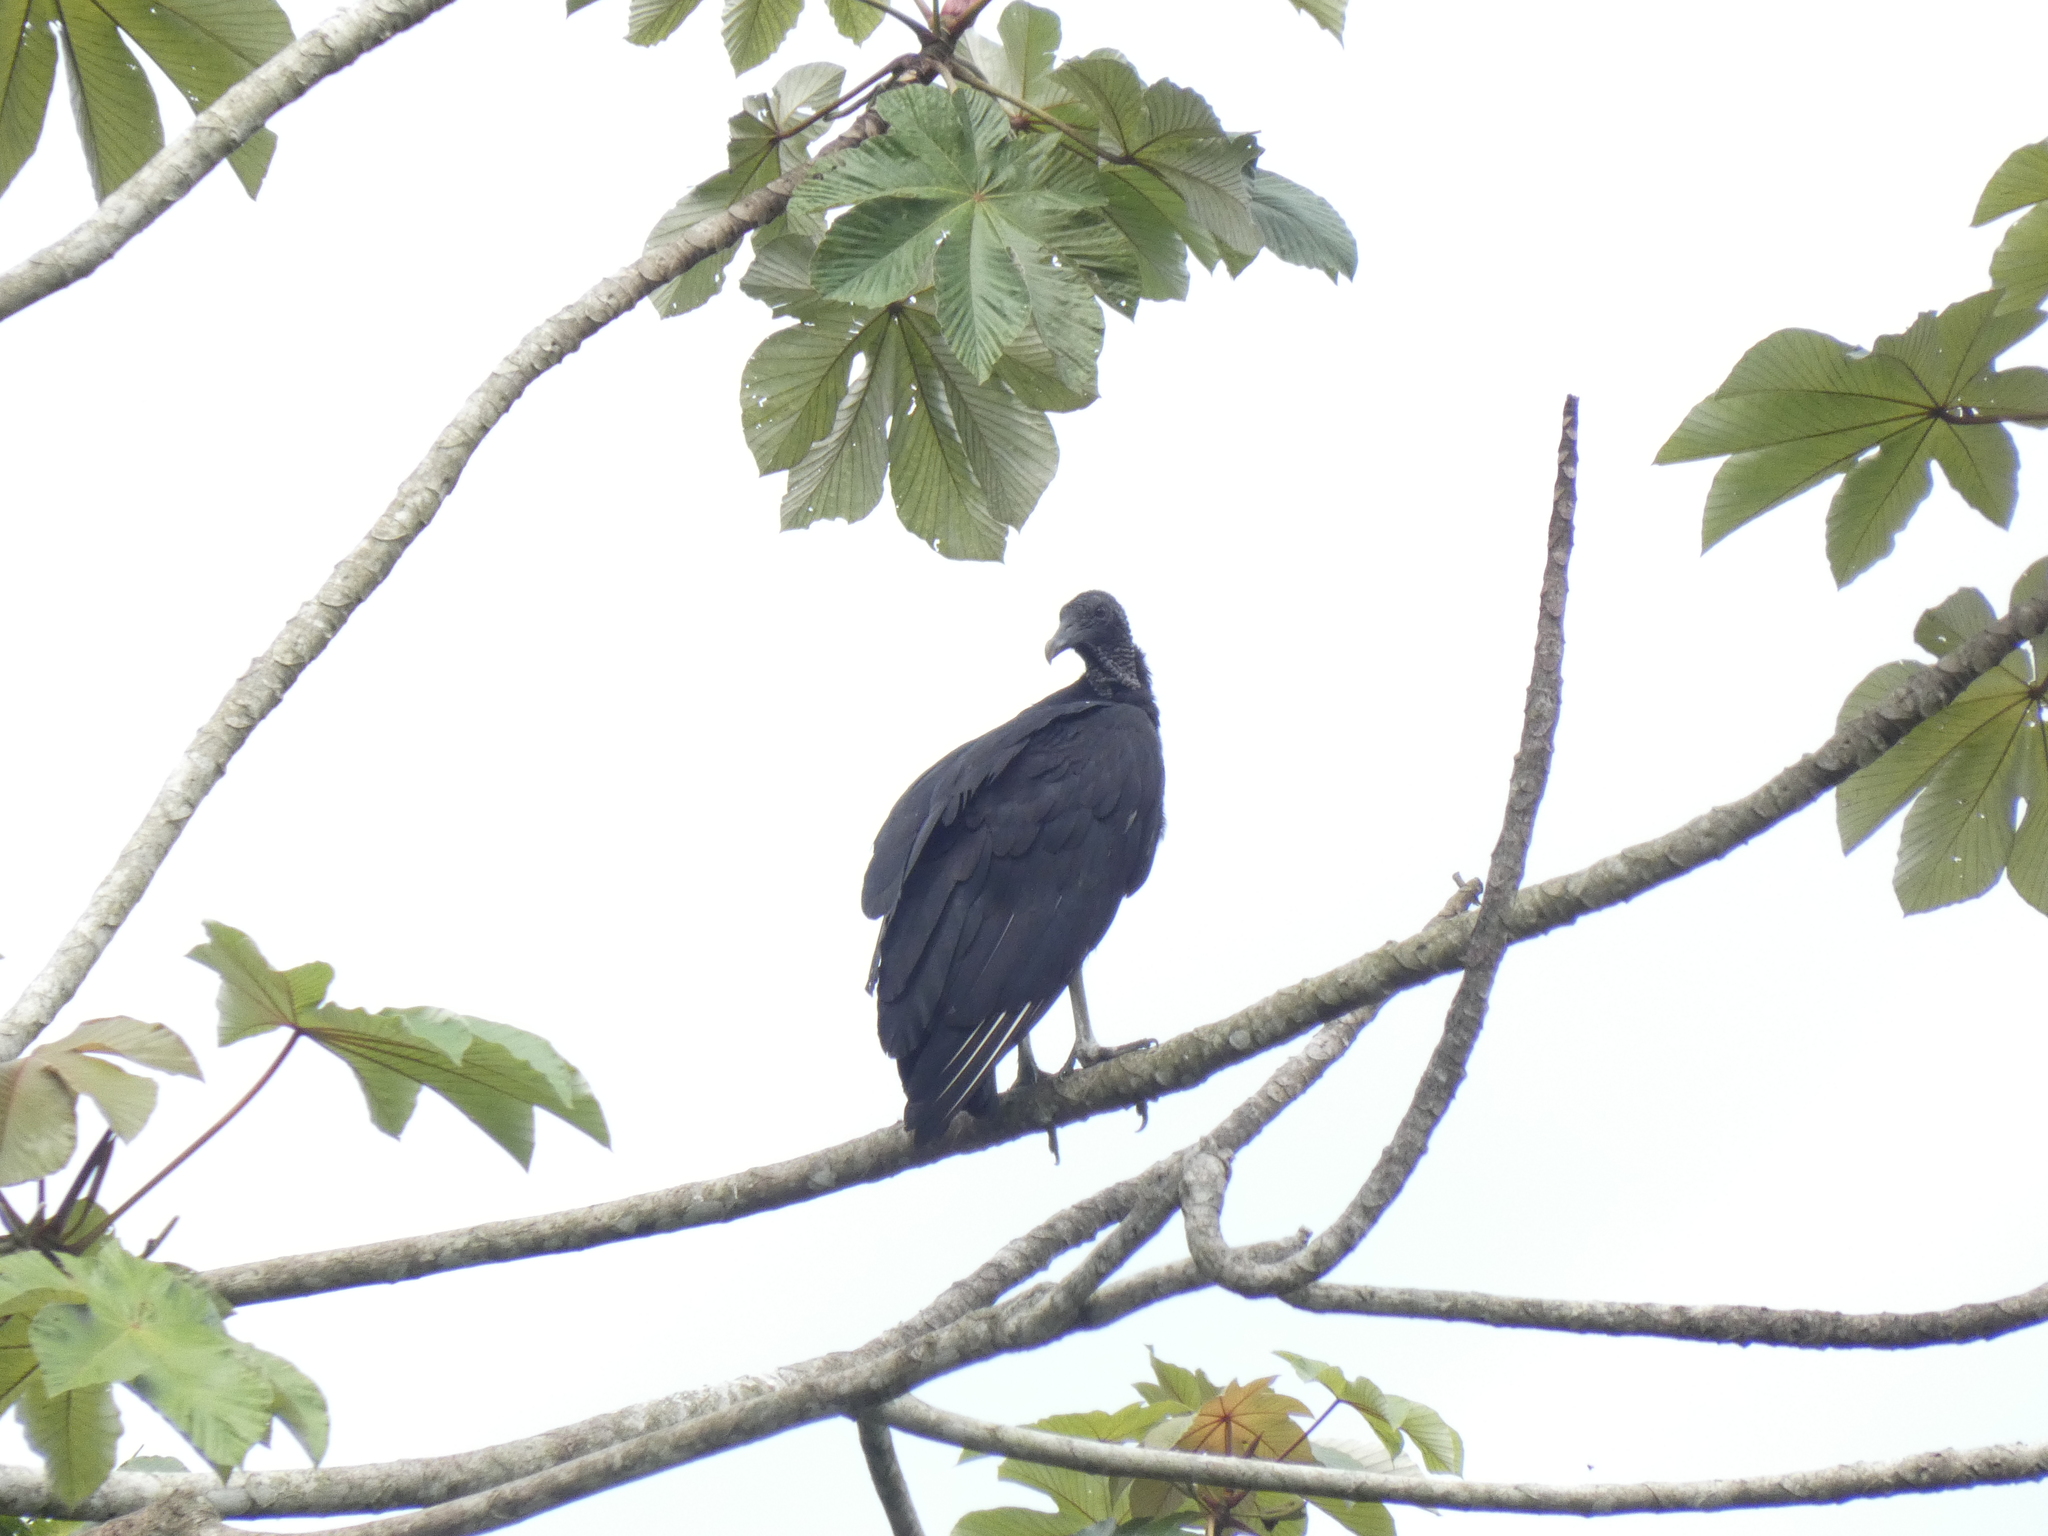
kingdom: Animalia
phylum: Chordata
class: Aves
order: Accipitriformes
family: Cathartidae
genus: Coragyps
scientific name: Coragyps atratus
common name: Black vulture
